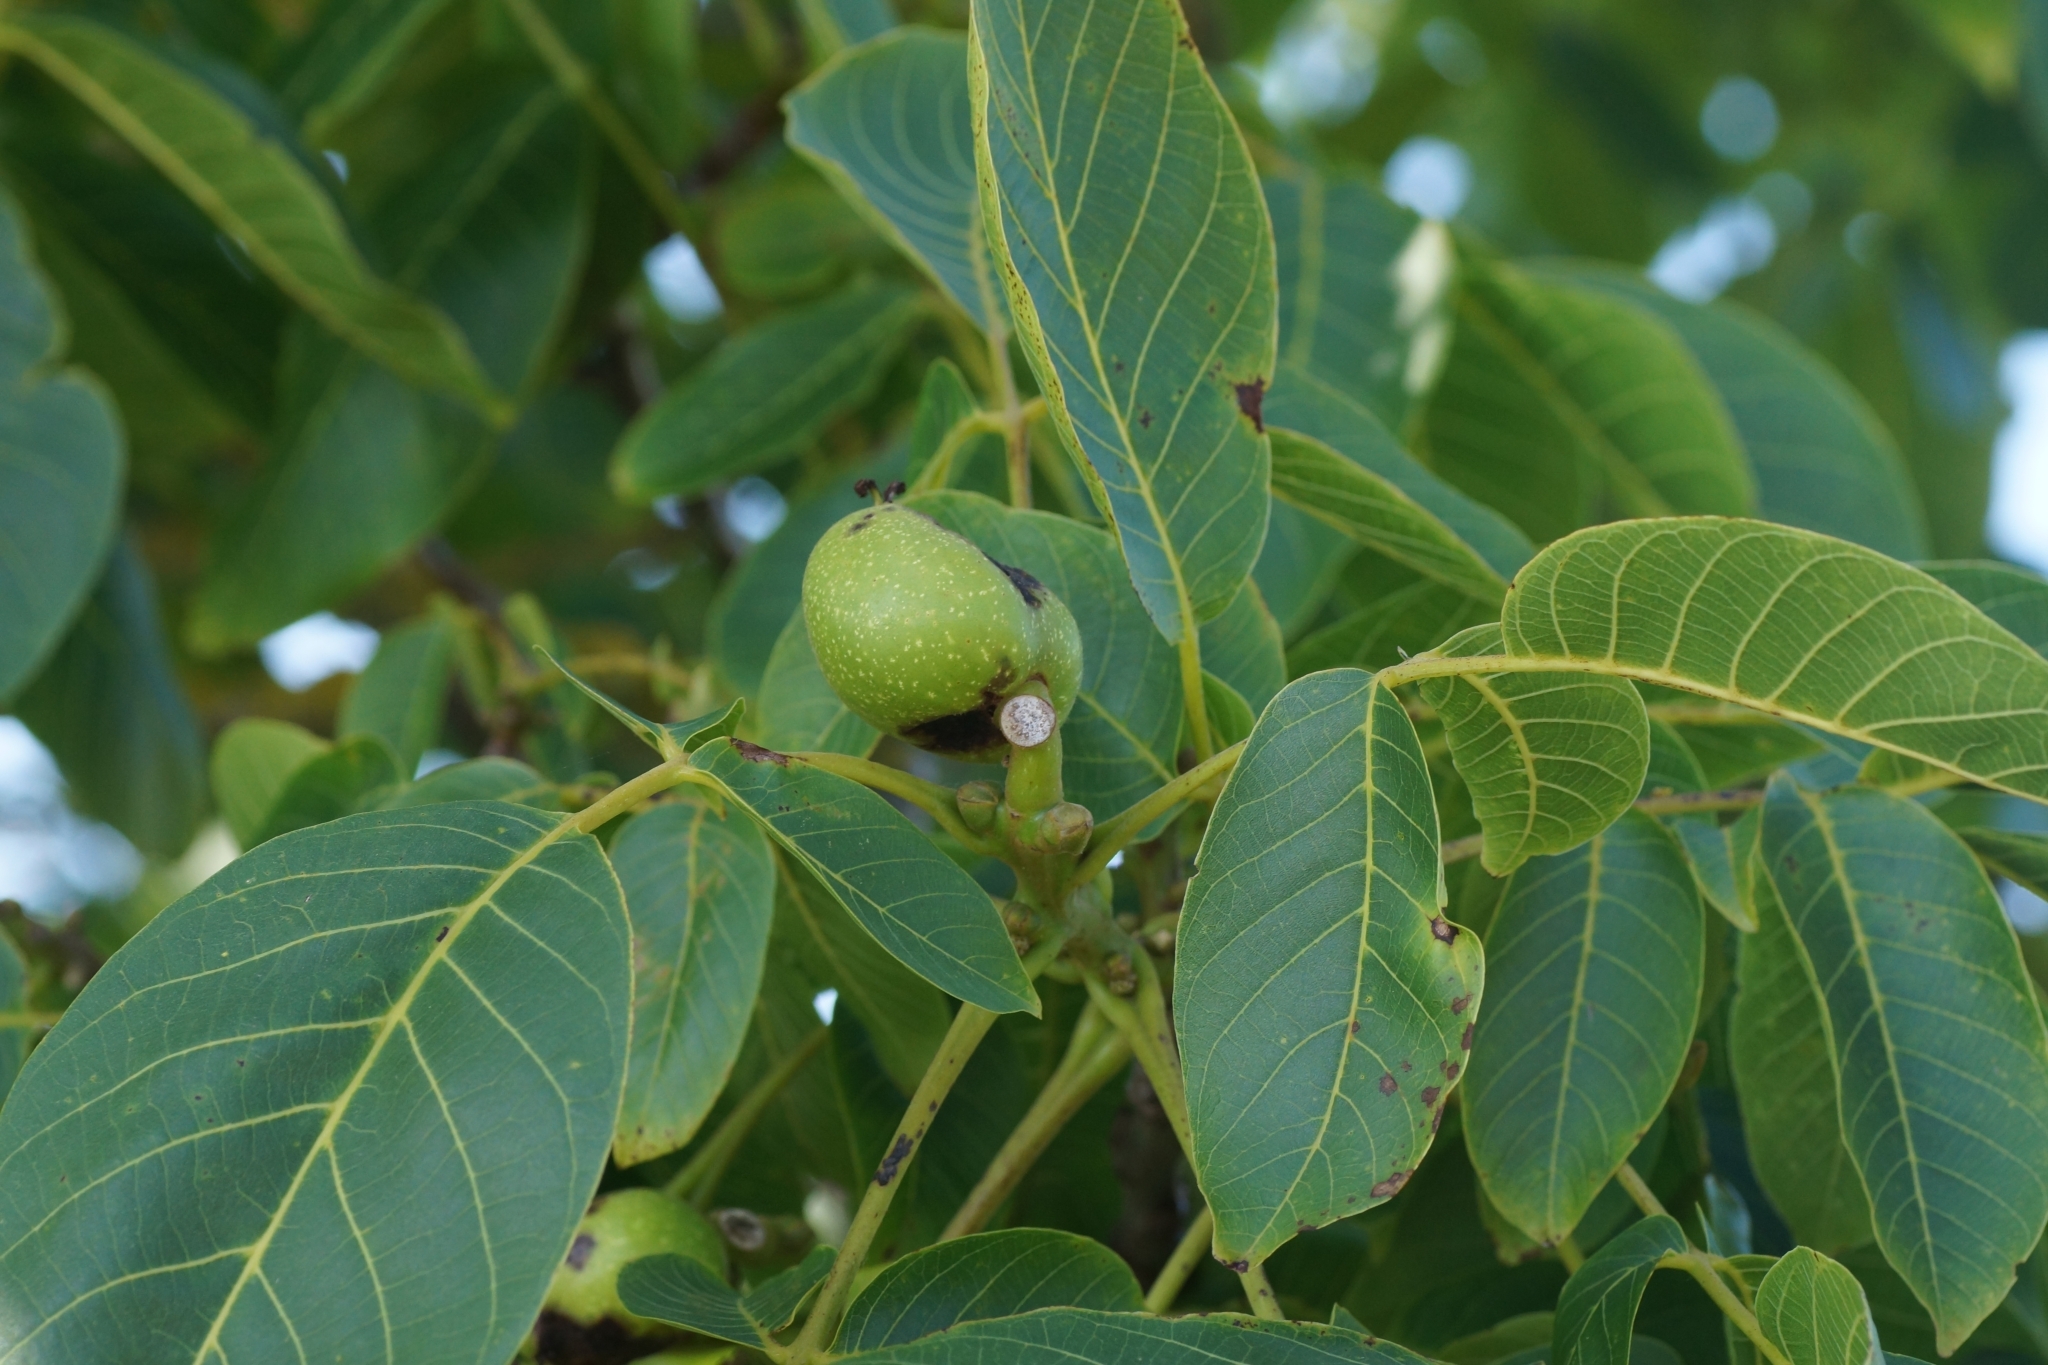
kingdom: Plantae
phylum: Tracheophyta
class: Magnoliopsida
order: Fagales
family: Juglandaceae
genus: Juglans
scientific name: Juglans regia
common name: Walnut
